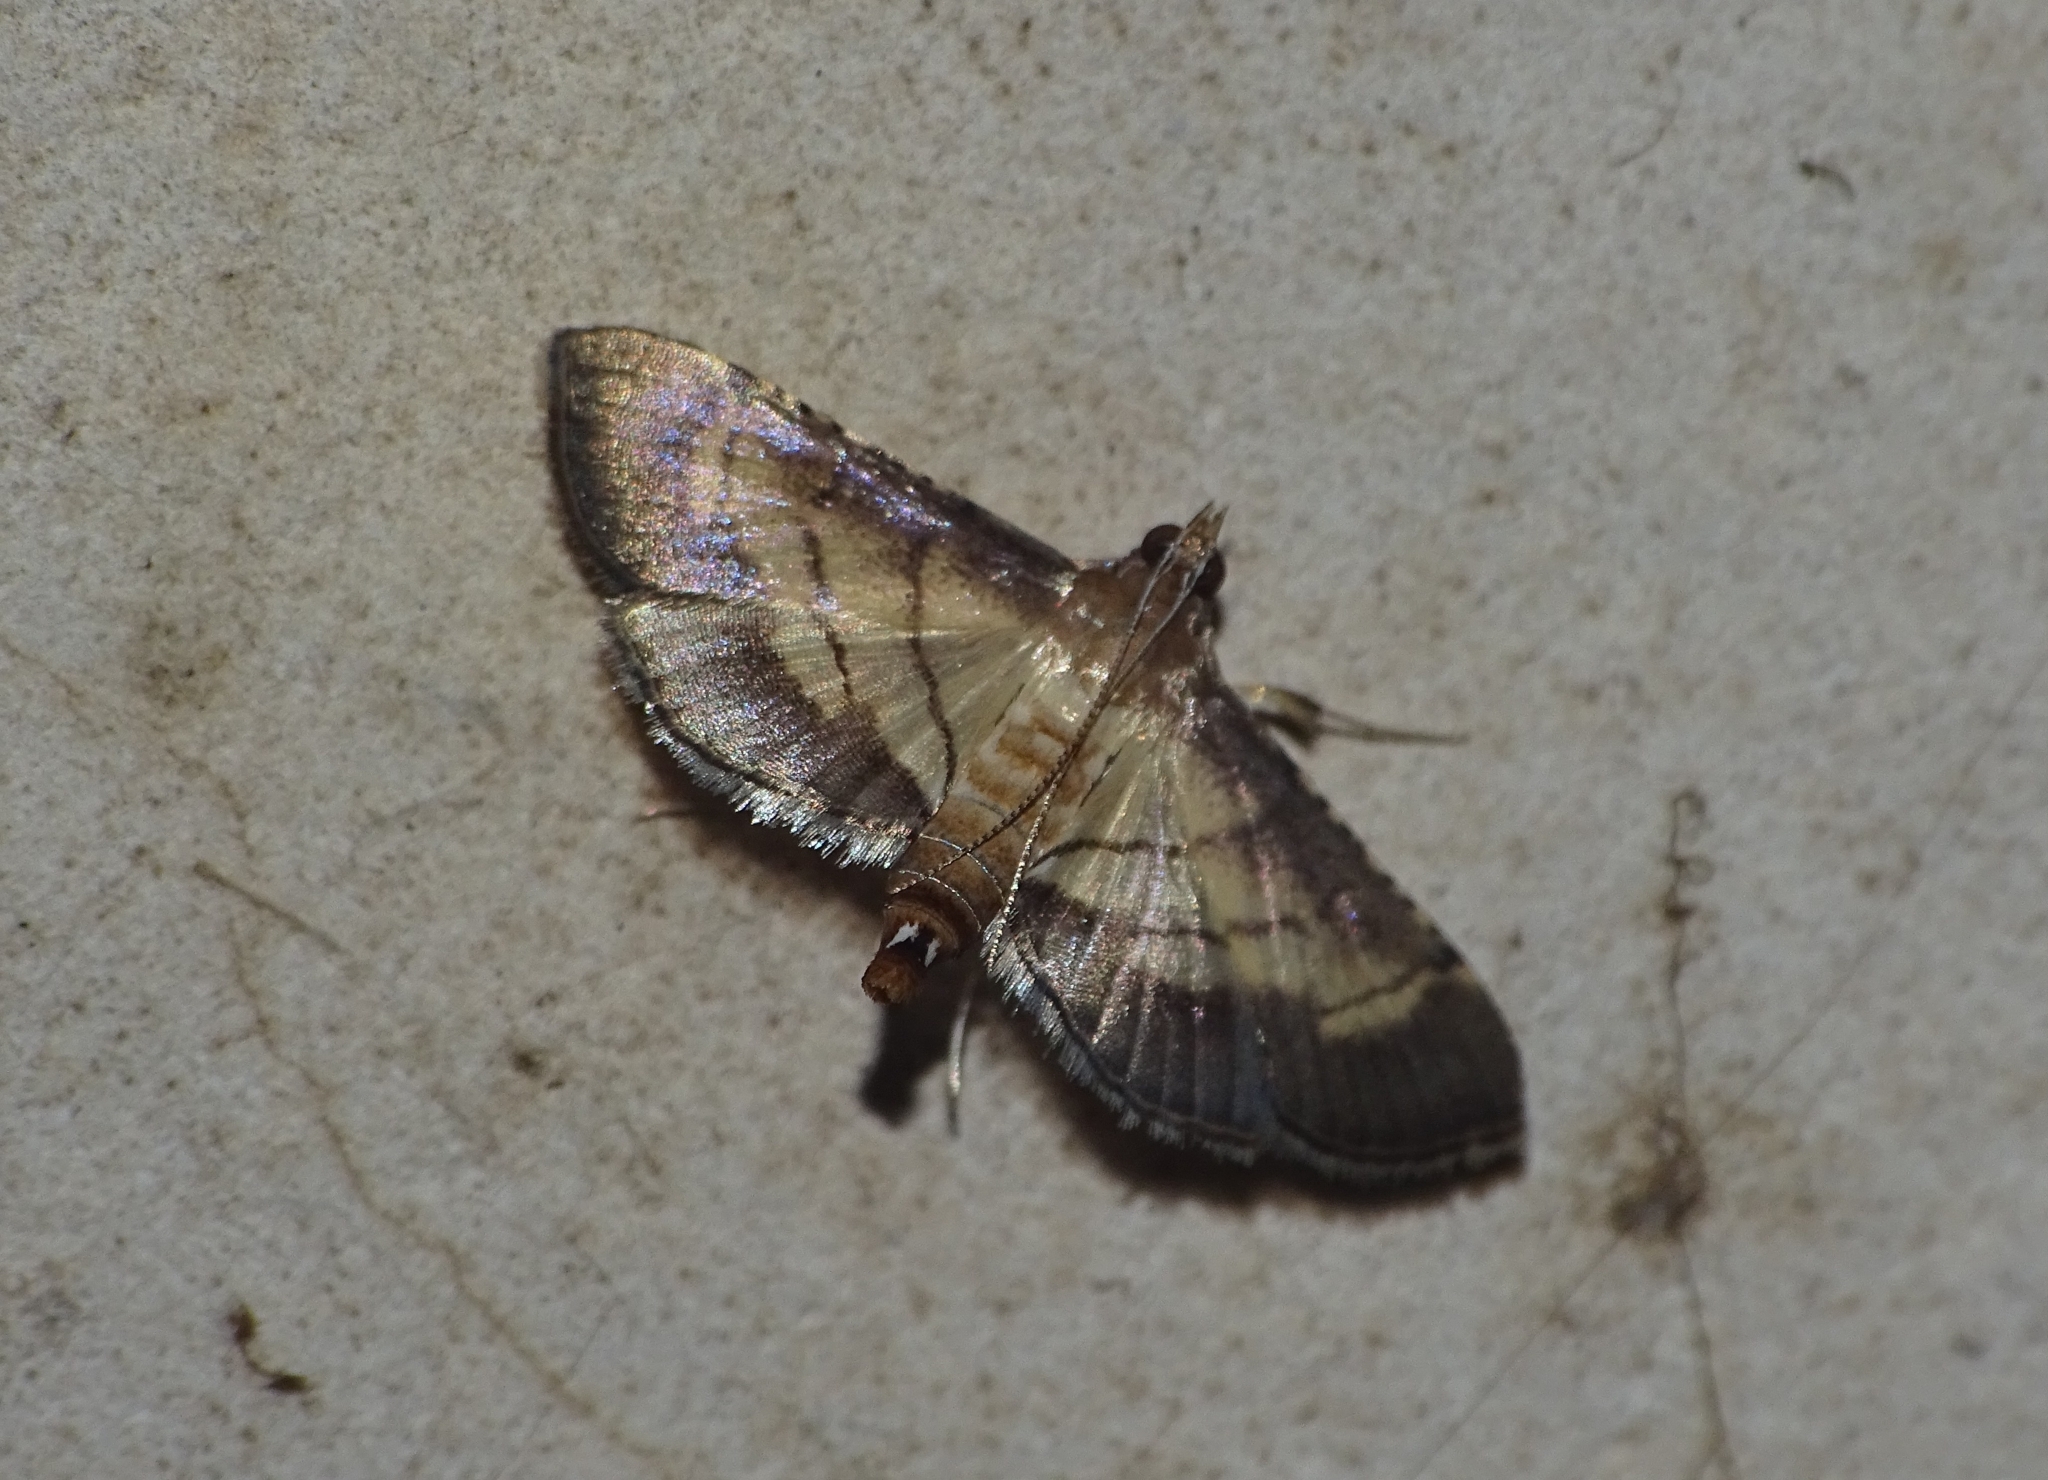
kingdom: Animalia
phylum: Arthropoda
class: Insecta
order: Lepidoptera
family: Crambidae
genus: Cnaphalocrocis
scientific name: Cnaphalocrocis trebiusalis
